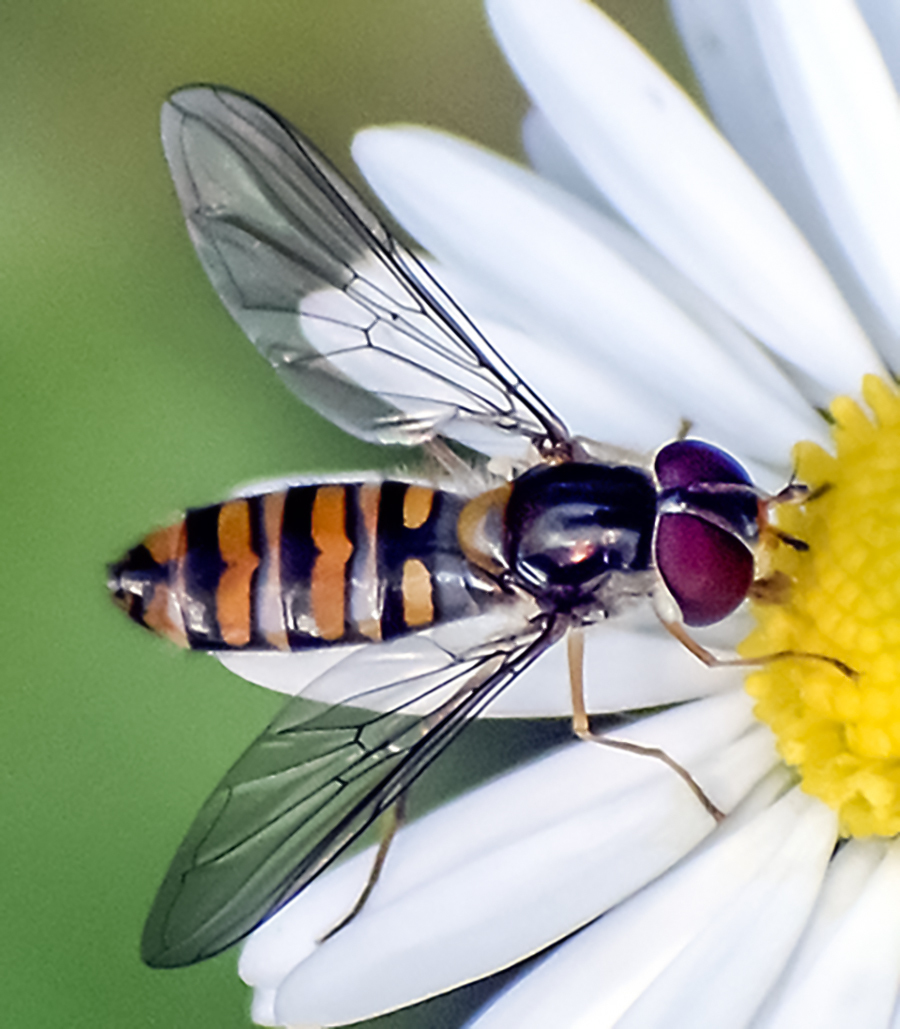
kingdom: Animalia
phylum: Arthropoda
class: Insecta
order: Diptera
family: Syrphidae
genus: Episyrphus
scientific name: Episyrphus balteatus
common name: Marmalade hoverfly
